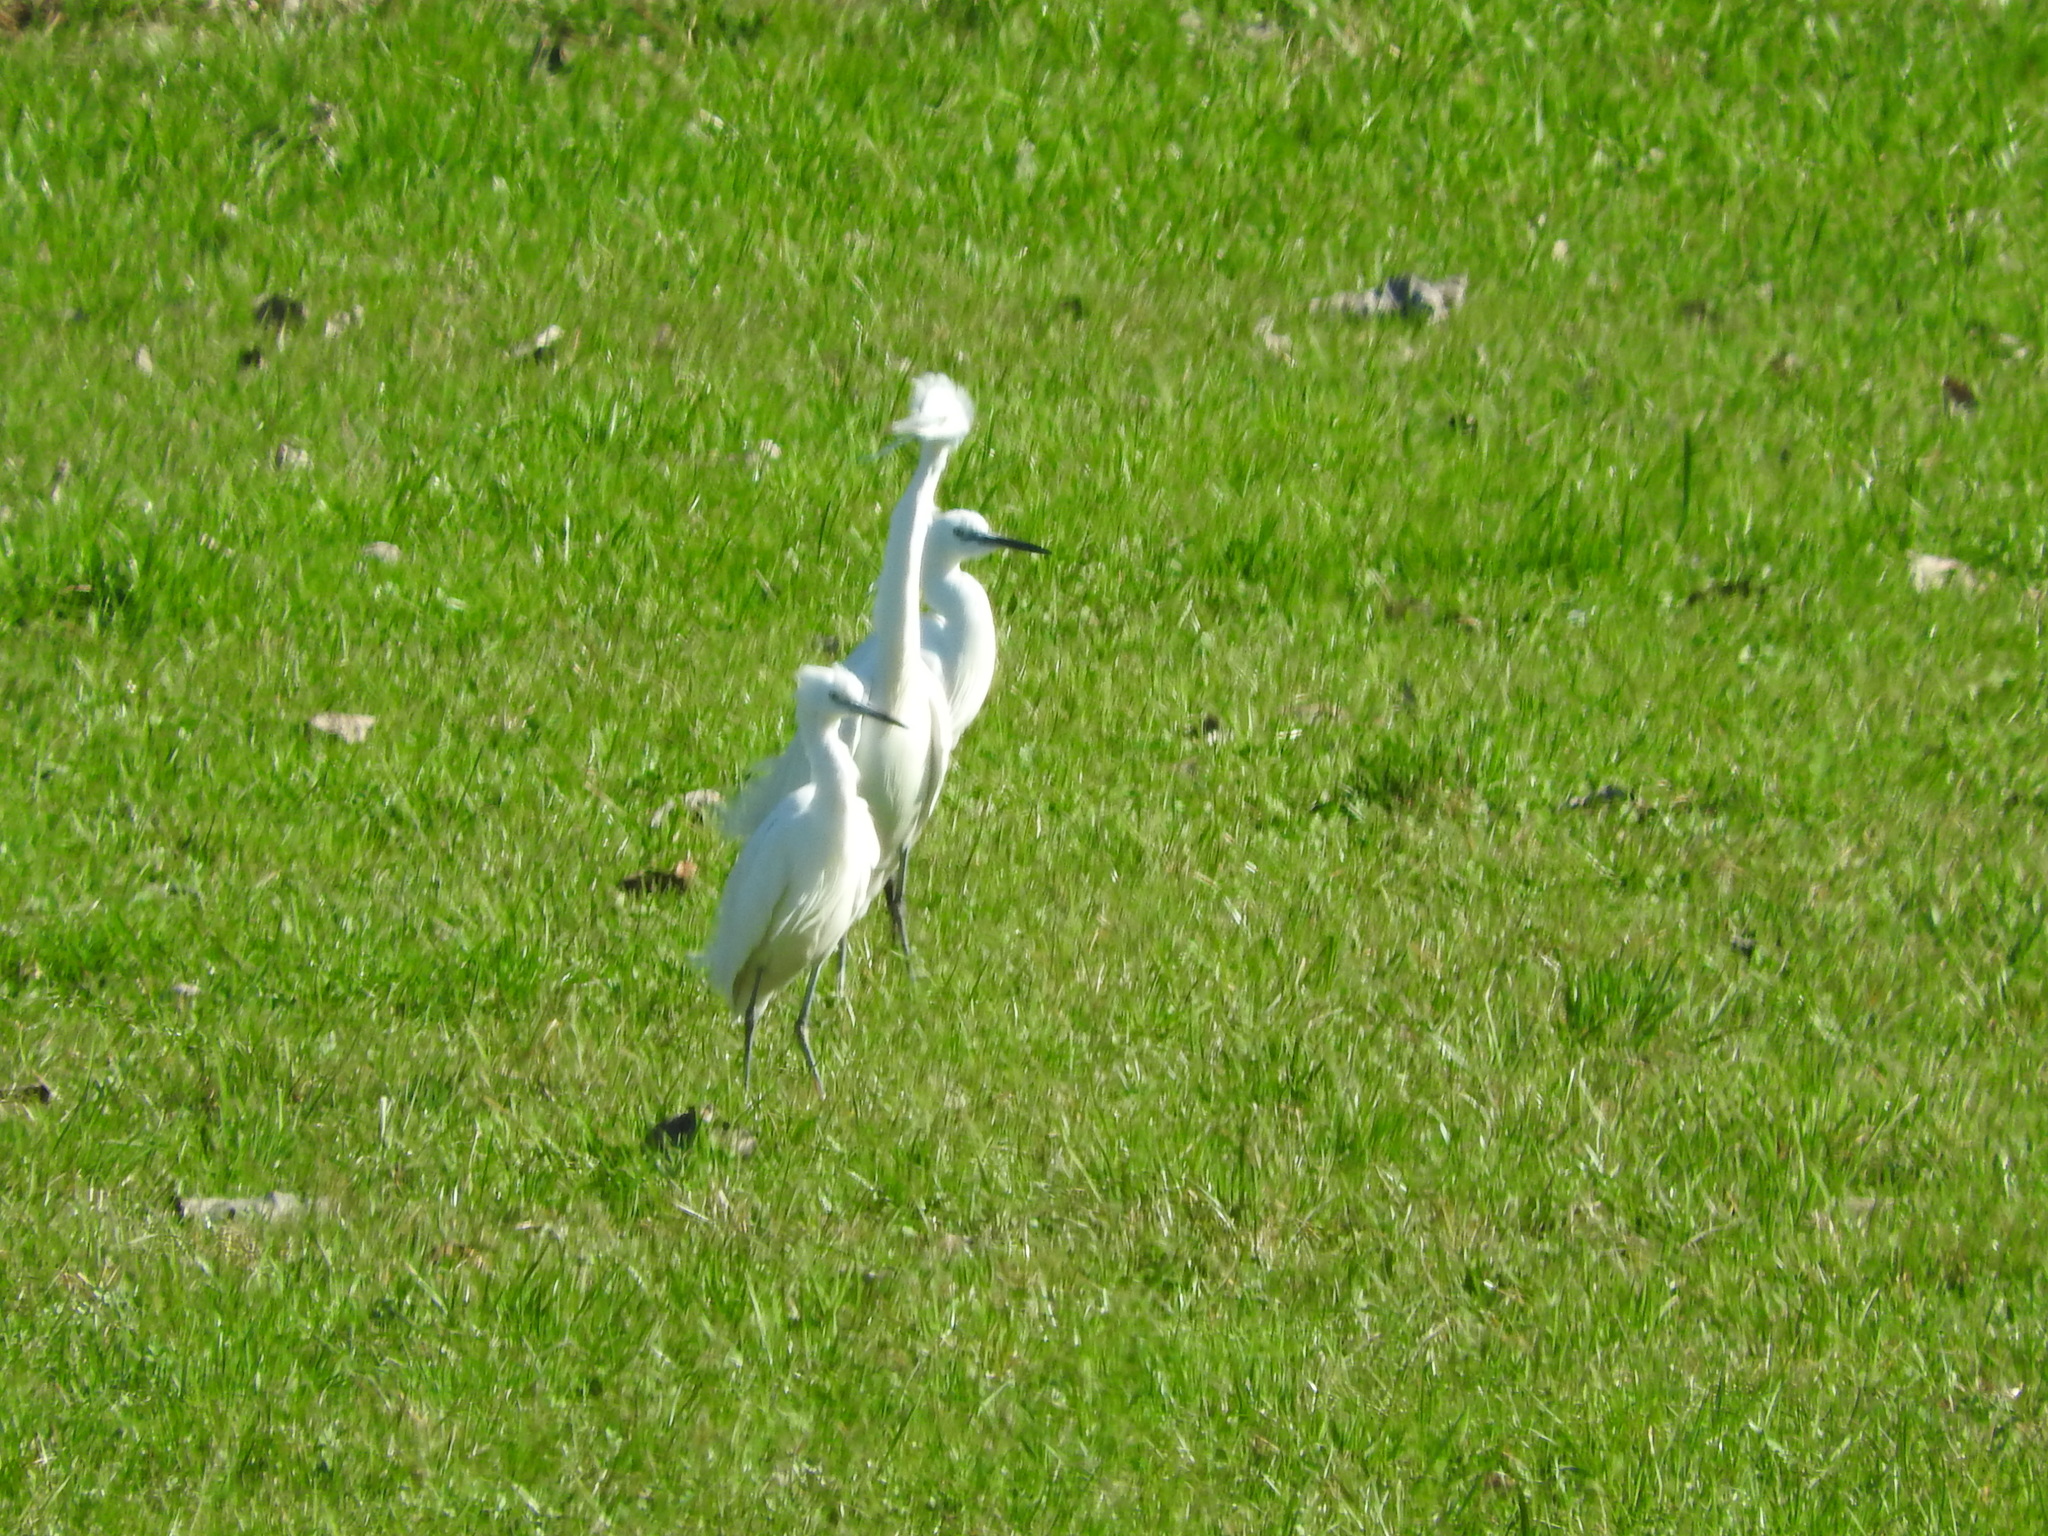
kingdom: Animalia
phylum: Chordata
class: Aves
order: Pelecaniformes
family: Ardeidae
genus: Egretta
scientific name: Egretta garzetta
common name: Little egret
